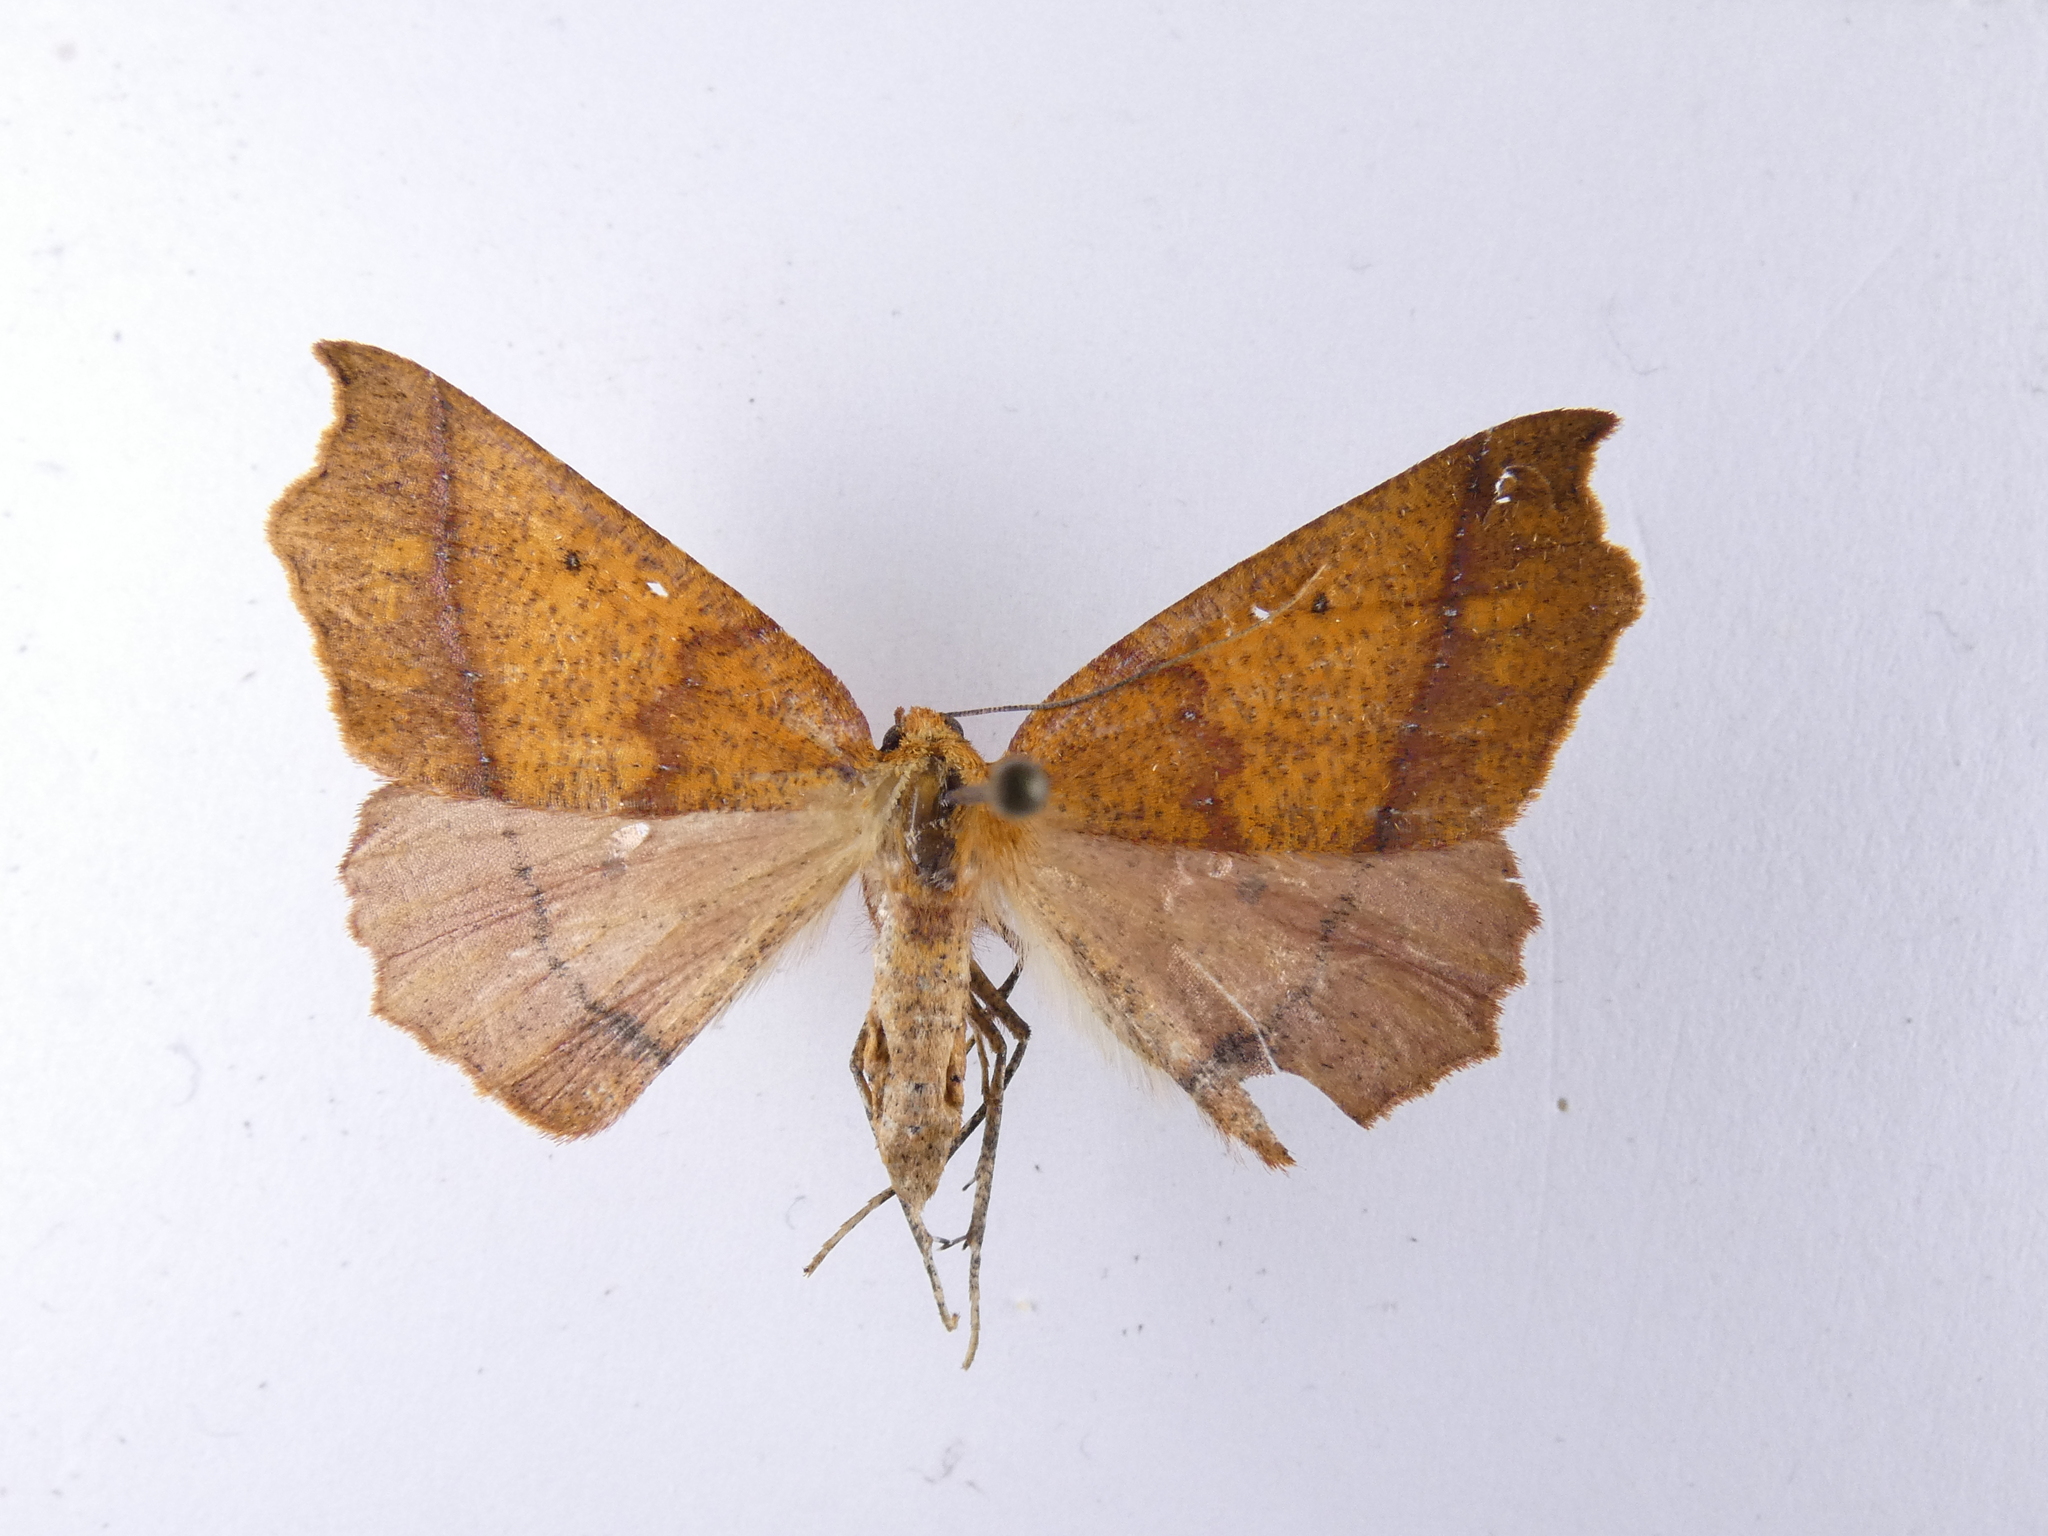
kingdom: Animalia
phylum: Arthropoda
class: Insecta
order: Lepidoptera
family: Geometridae
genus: Ischalis
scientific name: Ischalis nelsonaria
